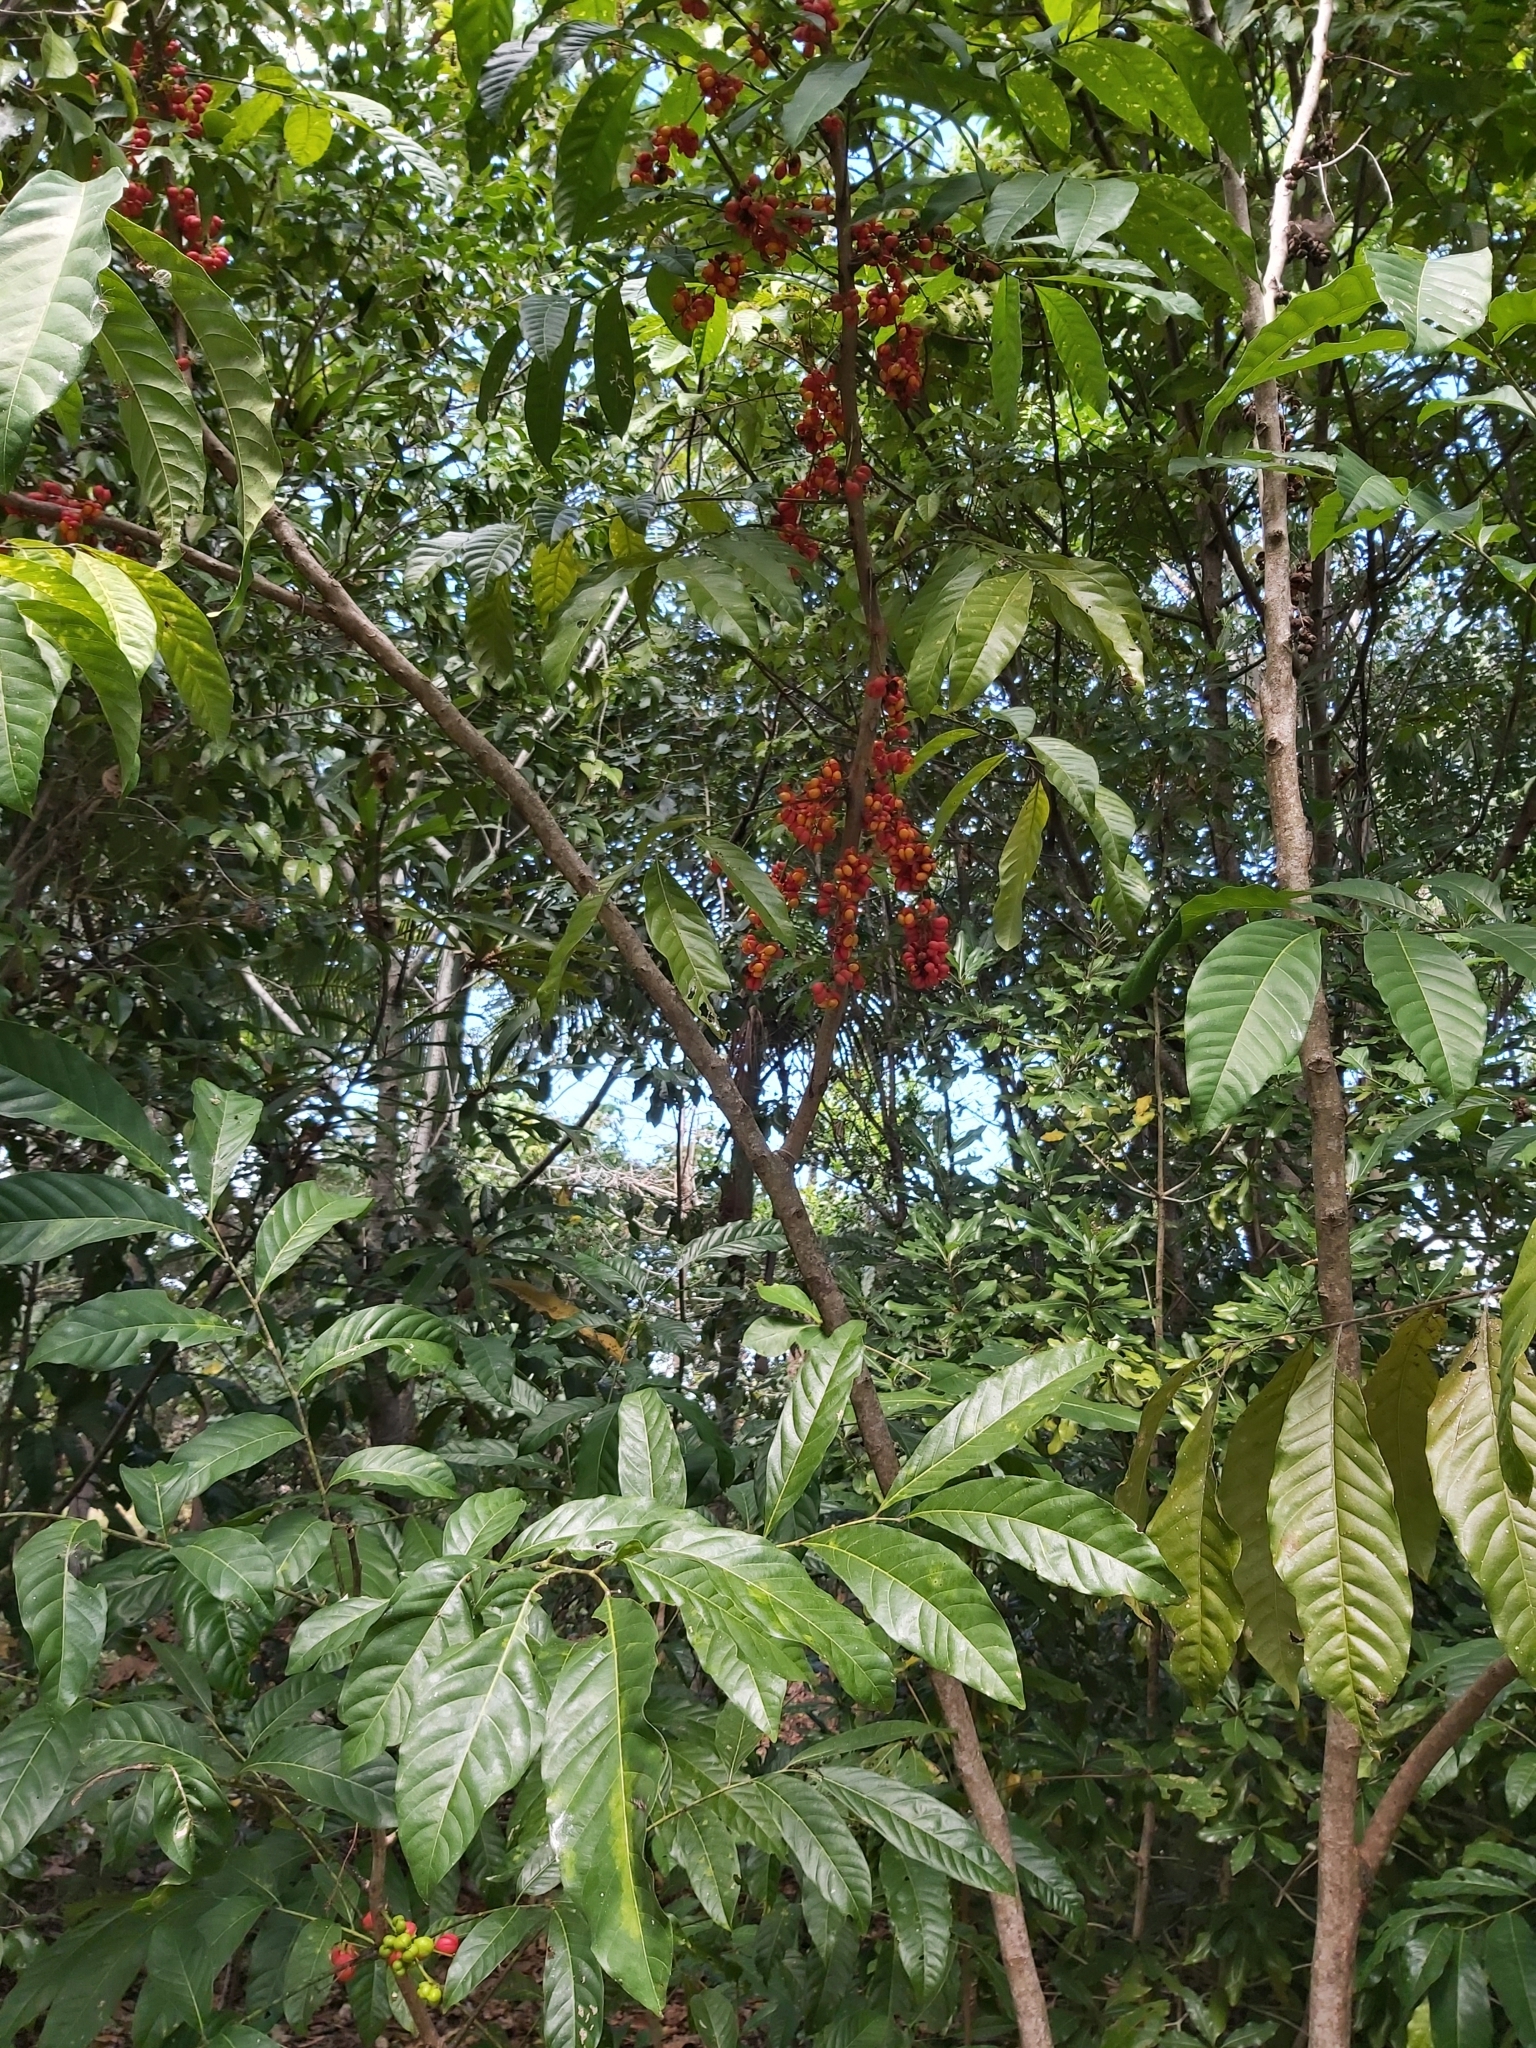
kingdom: Plantae
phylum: Tracheophyta
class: Magnoliopsida
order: Sapindales
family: Sapindaceae
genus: Harpullia
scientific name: Harpullia ramiflora
